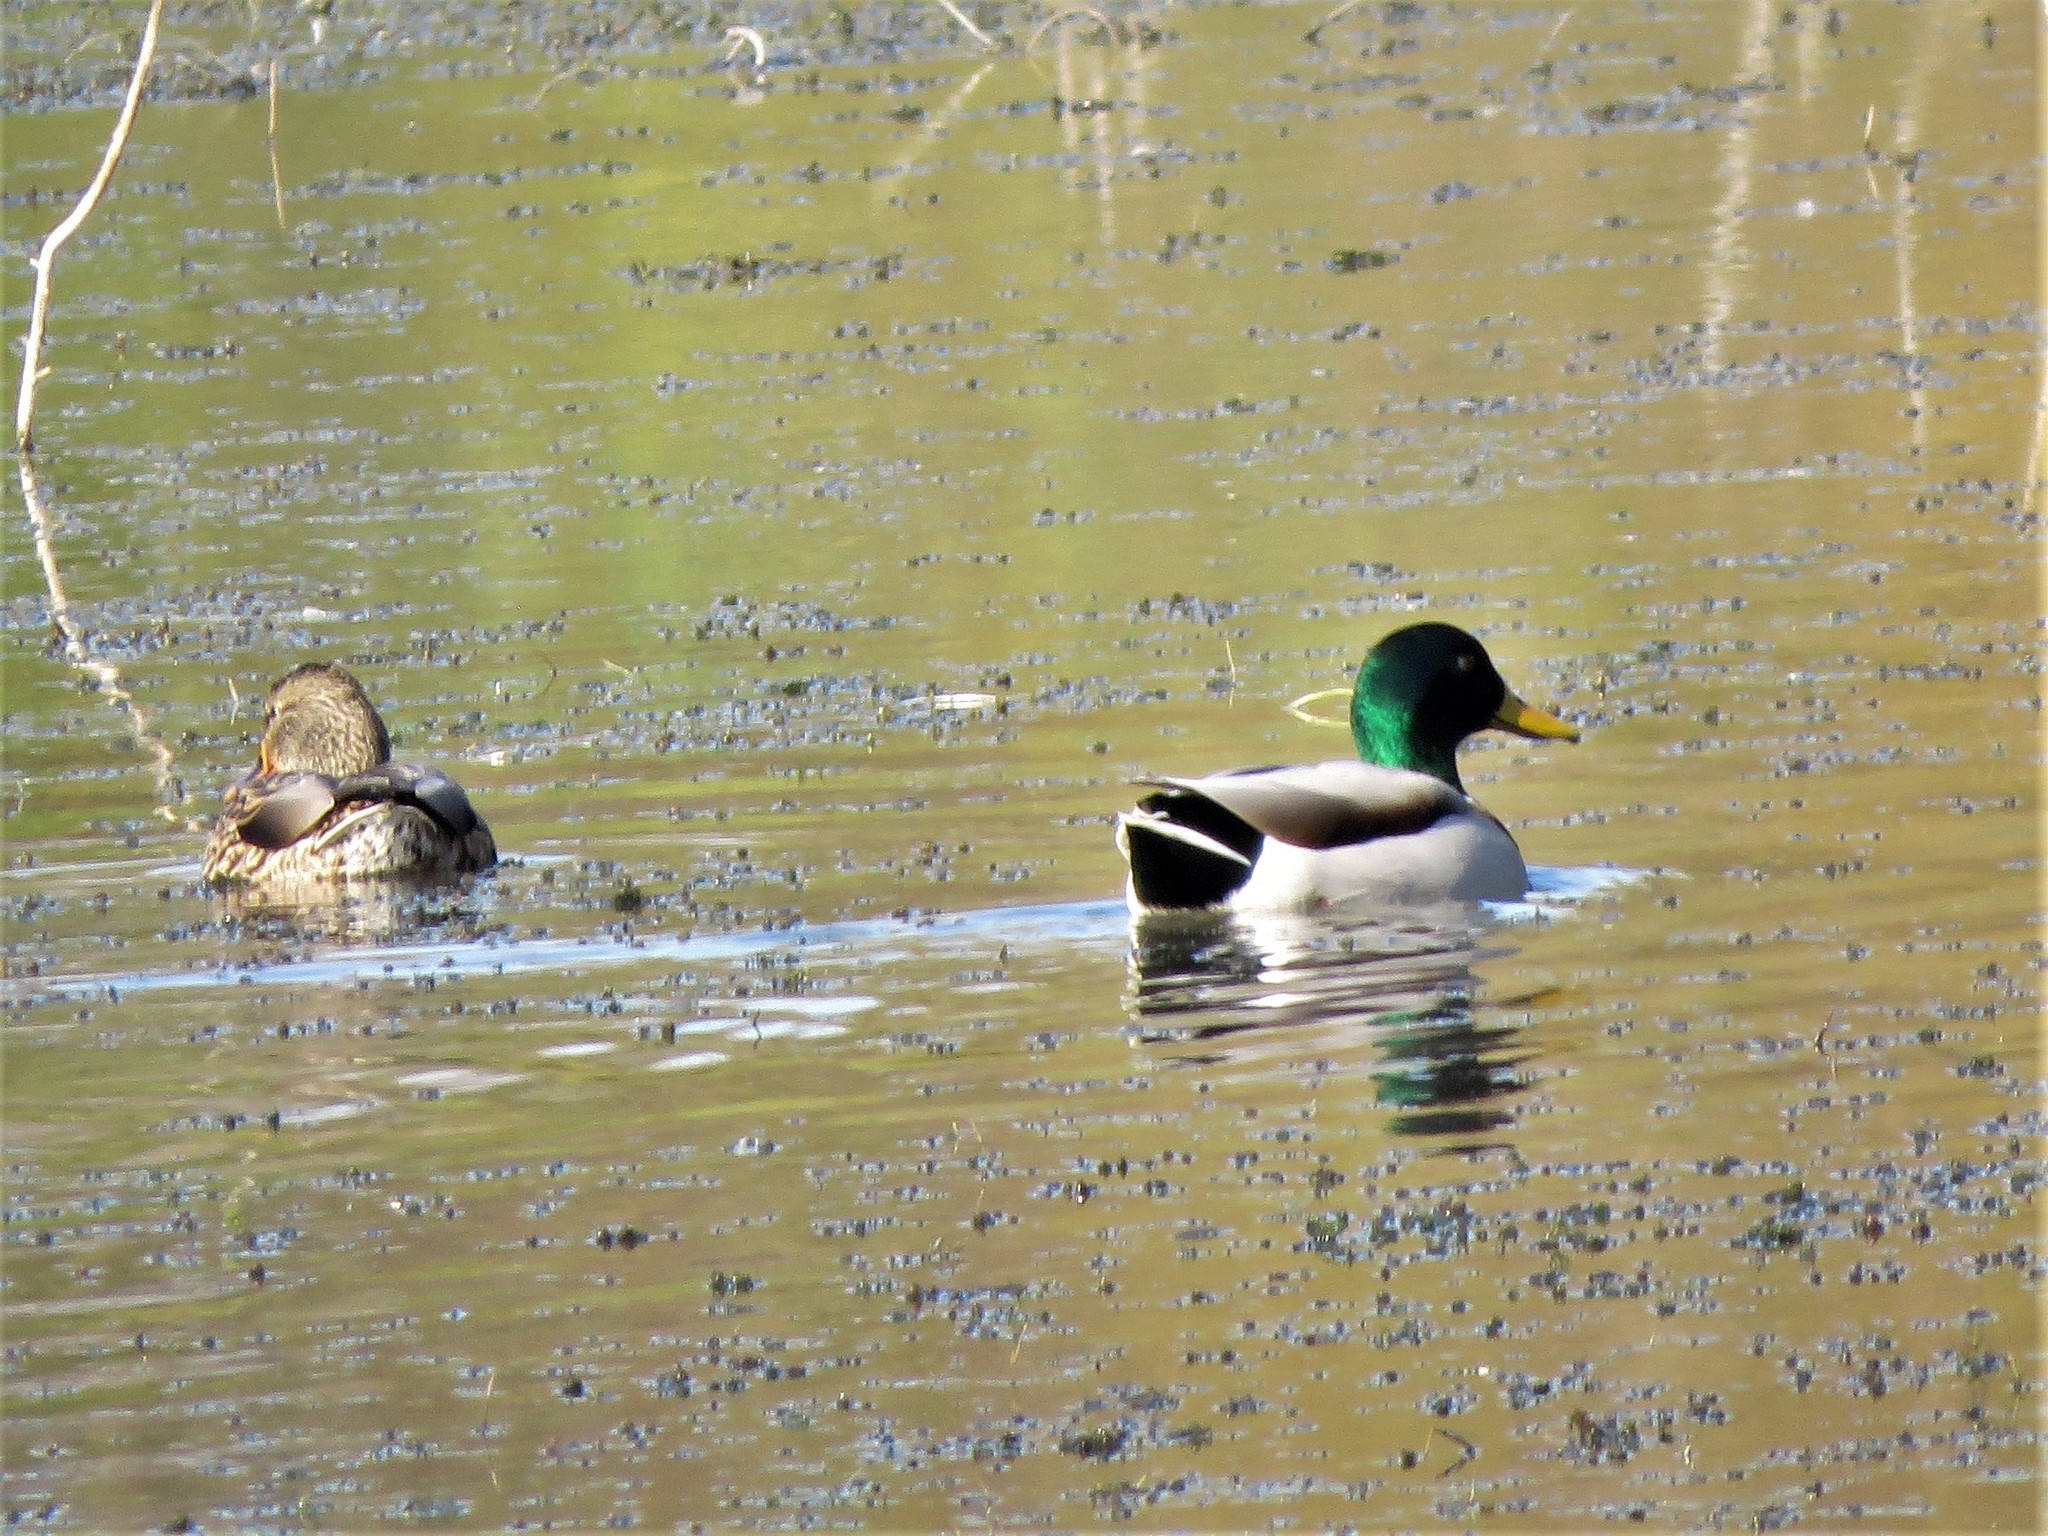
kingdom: Animalia
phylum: Chordata
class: Aves
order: Anseriformes
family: Anatidae
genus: Anas
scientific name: Anas platyrhynchos
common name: Mallard
